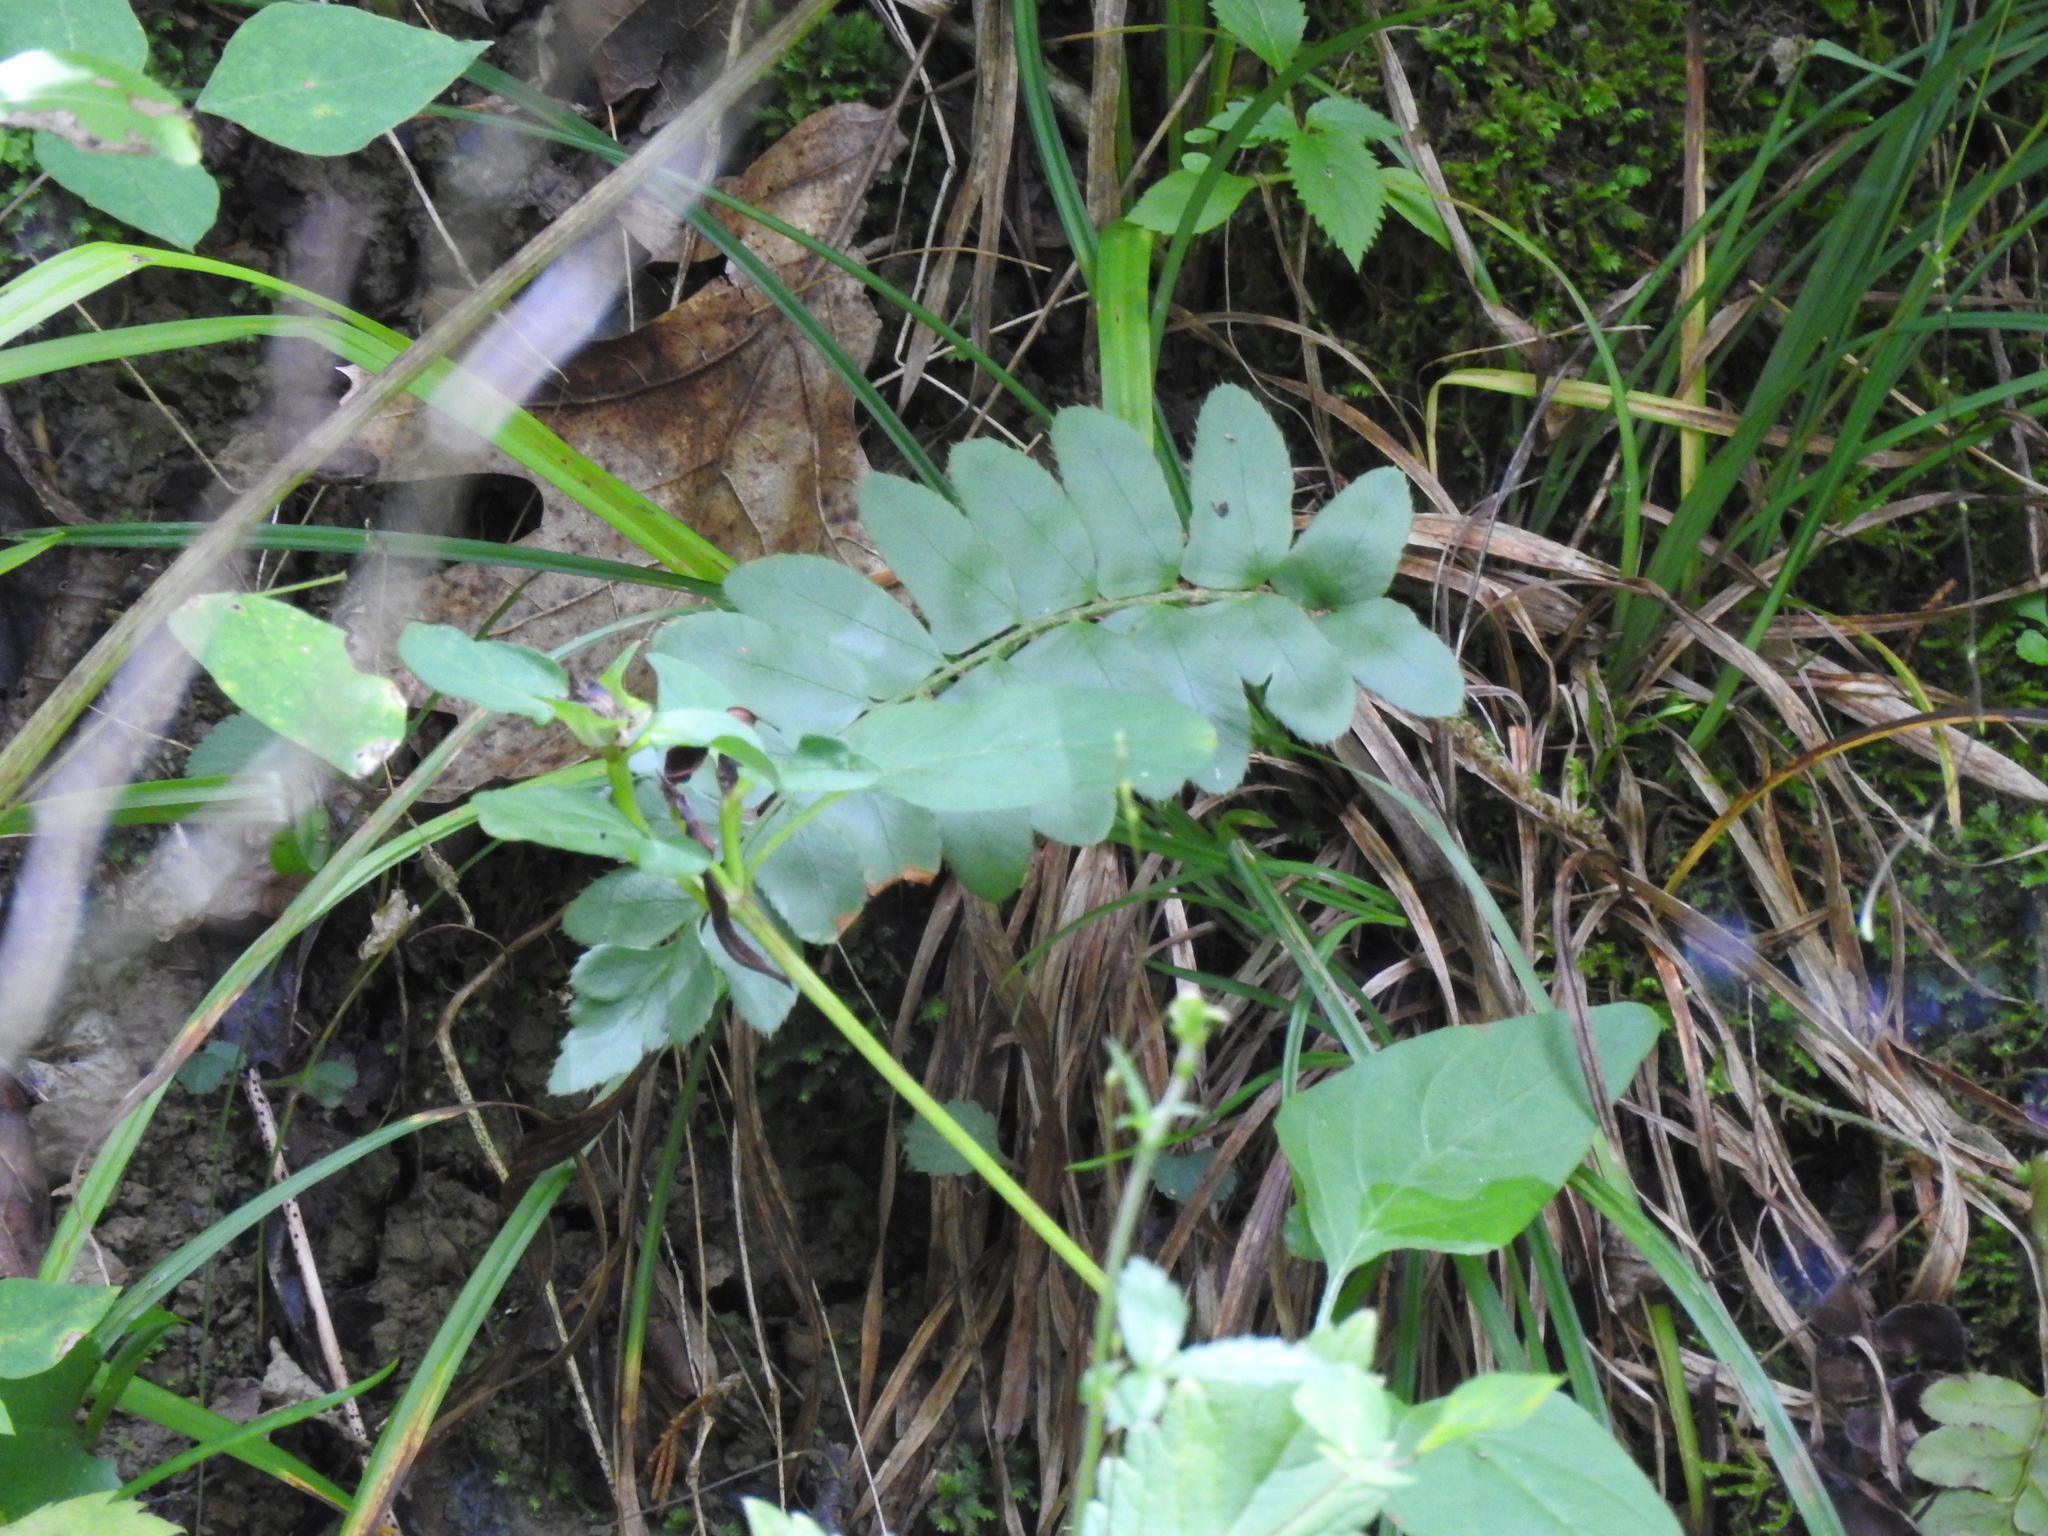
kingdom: Plantae
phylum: Tracheophyta
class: Polypodiopsida
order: Polypodiales
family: Dryopteridaceae
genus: Polystichum
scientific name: Polystichum acrostichoides
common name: Christmas fern
